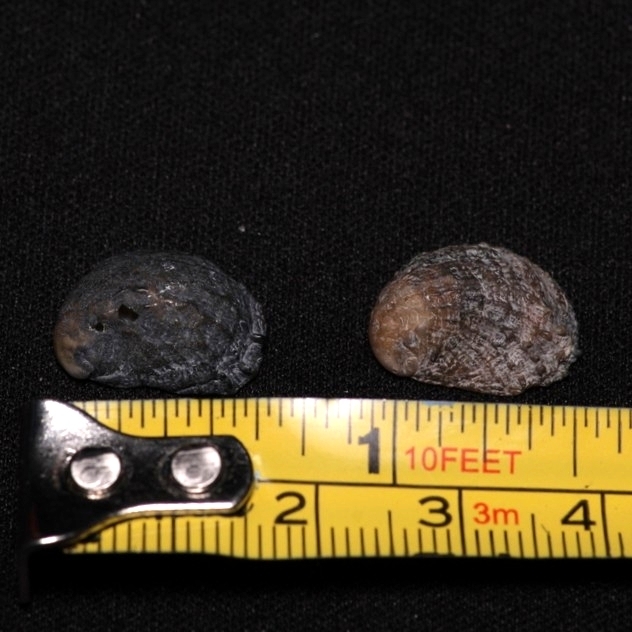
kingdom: Animalia
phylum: Mollusca
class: Gastropoda
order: Littorinimorpha
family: Calyptraeidae
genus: Bostrycapulus
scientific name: Bostrycapulus aculeatus
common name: Spiny slippersnail
